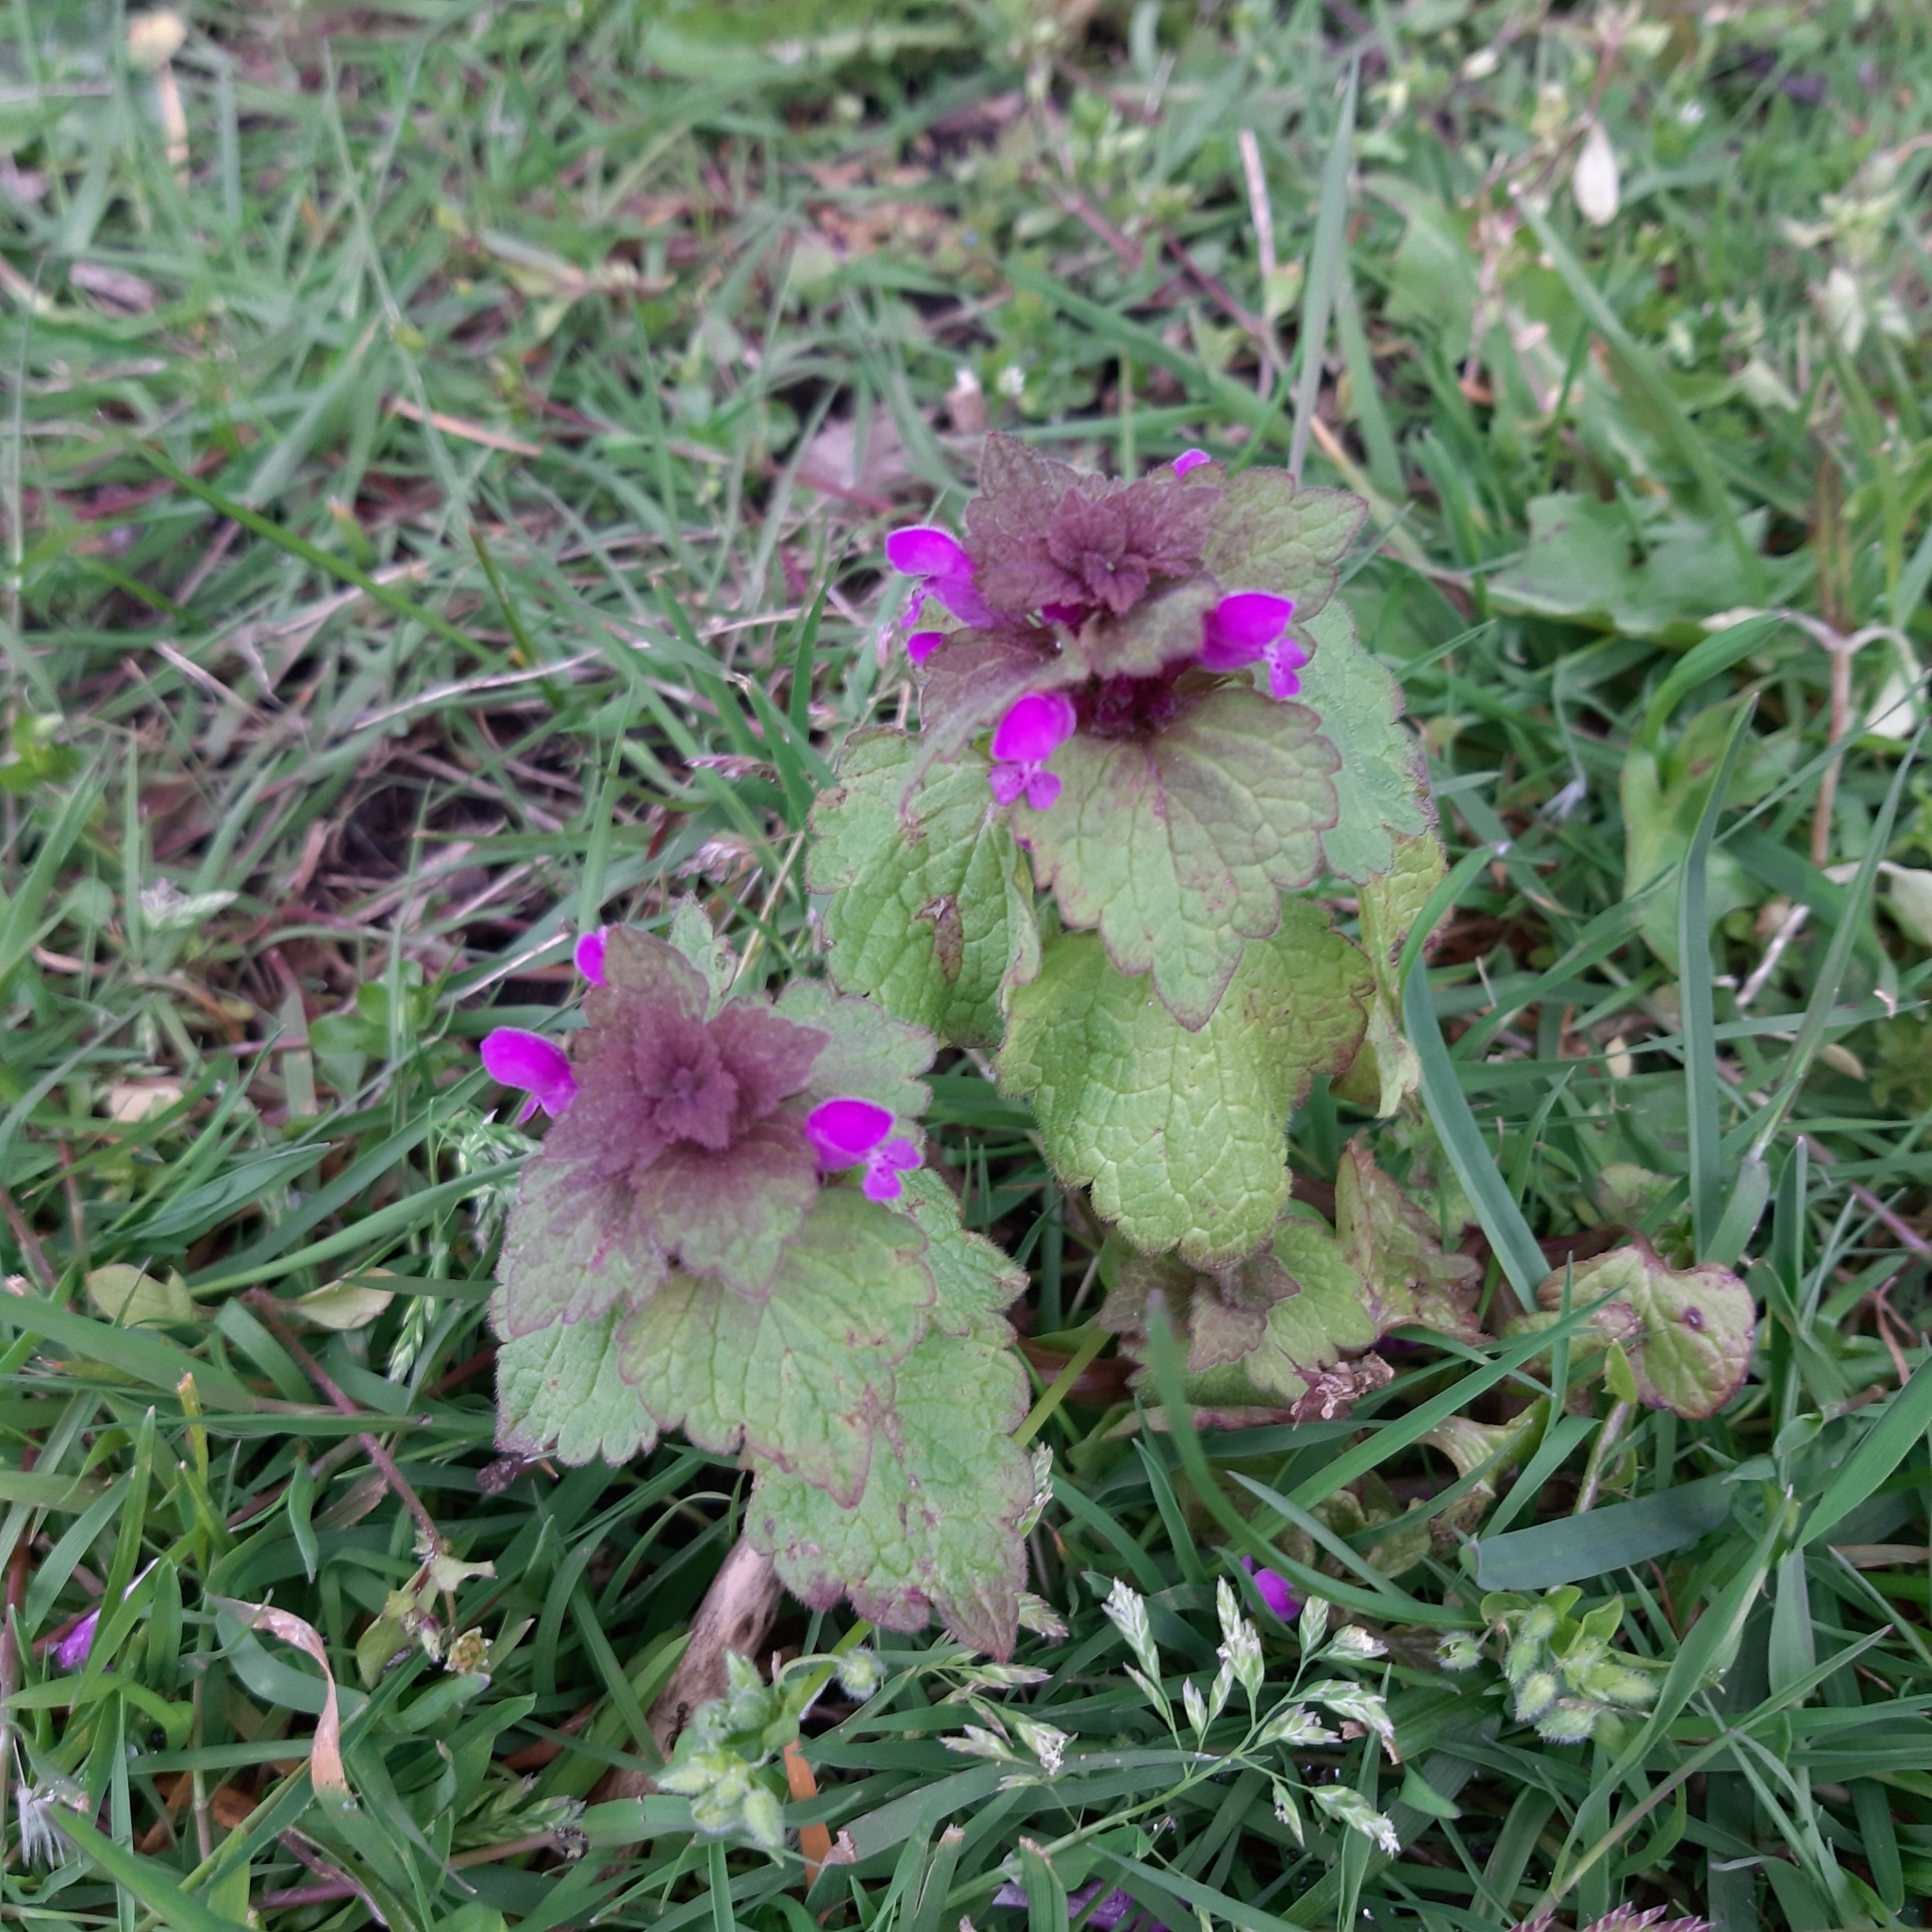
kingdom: Plantae
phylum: Tracheophyta
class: Magnoliopsida
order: Lamiales
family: Lamiaceae
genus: Lamium
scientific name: Lamium purpureum
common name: Red dead-nettle
